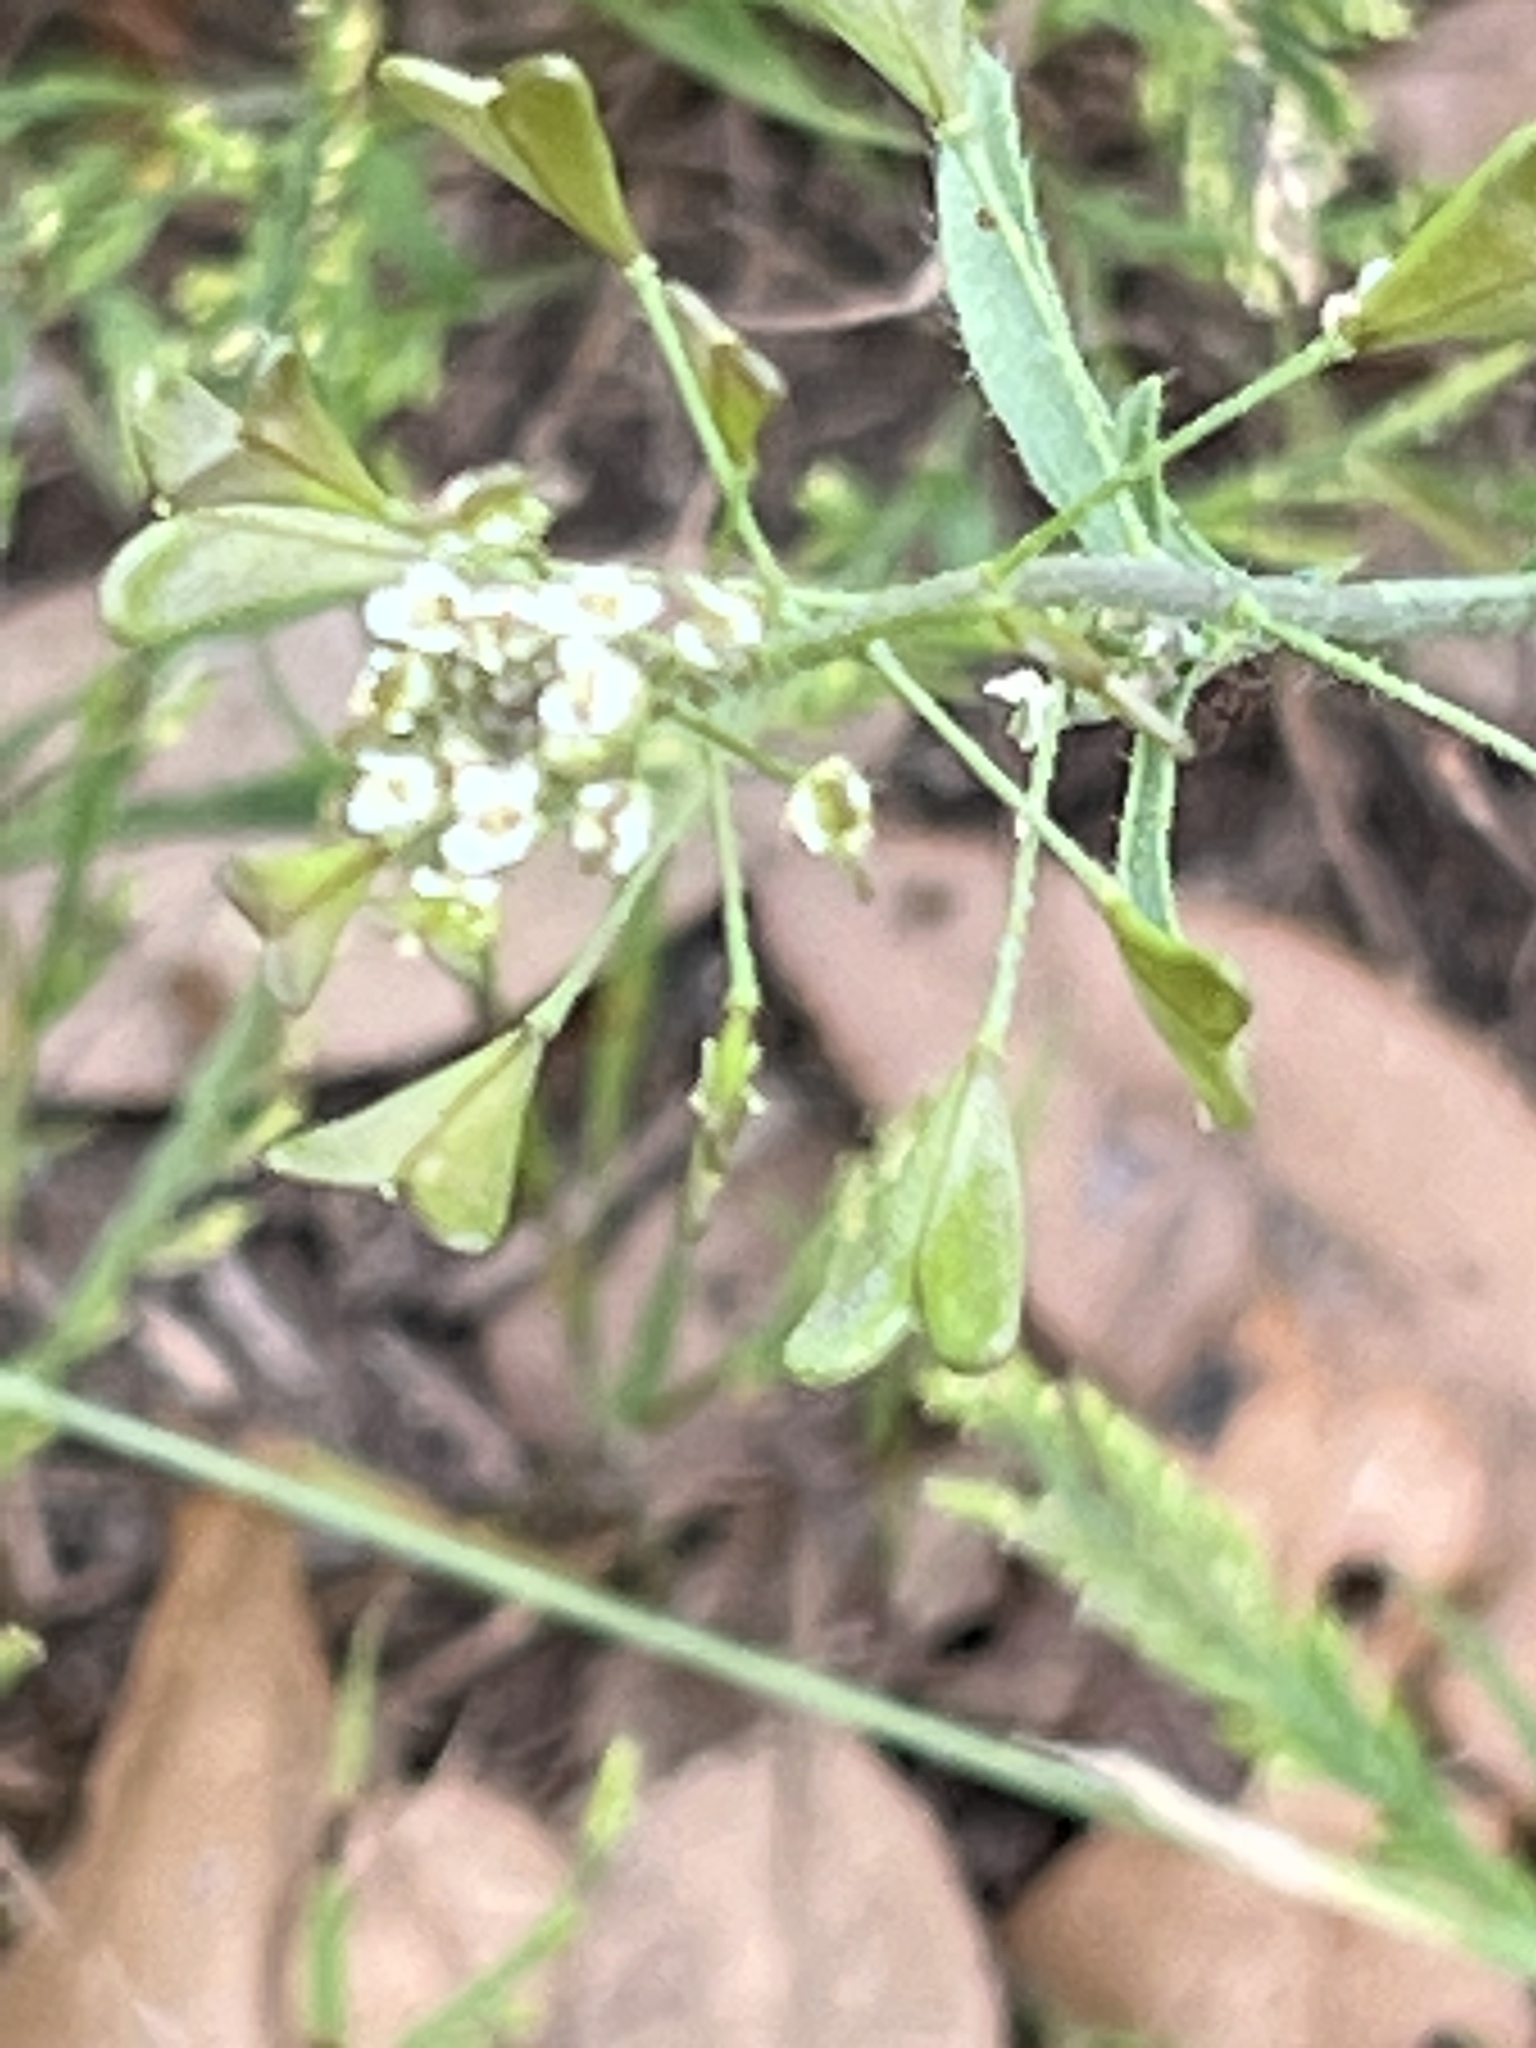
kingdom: Plantae
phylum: Tracheophyta
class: Magnoliopsida
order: Brassicales
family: Brassicaceae
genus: Capsella
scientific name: Capsella bursa-pastoris
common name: Shepherd's purse
